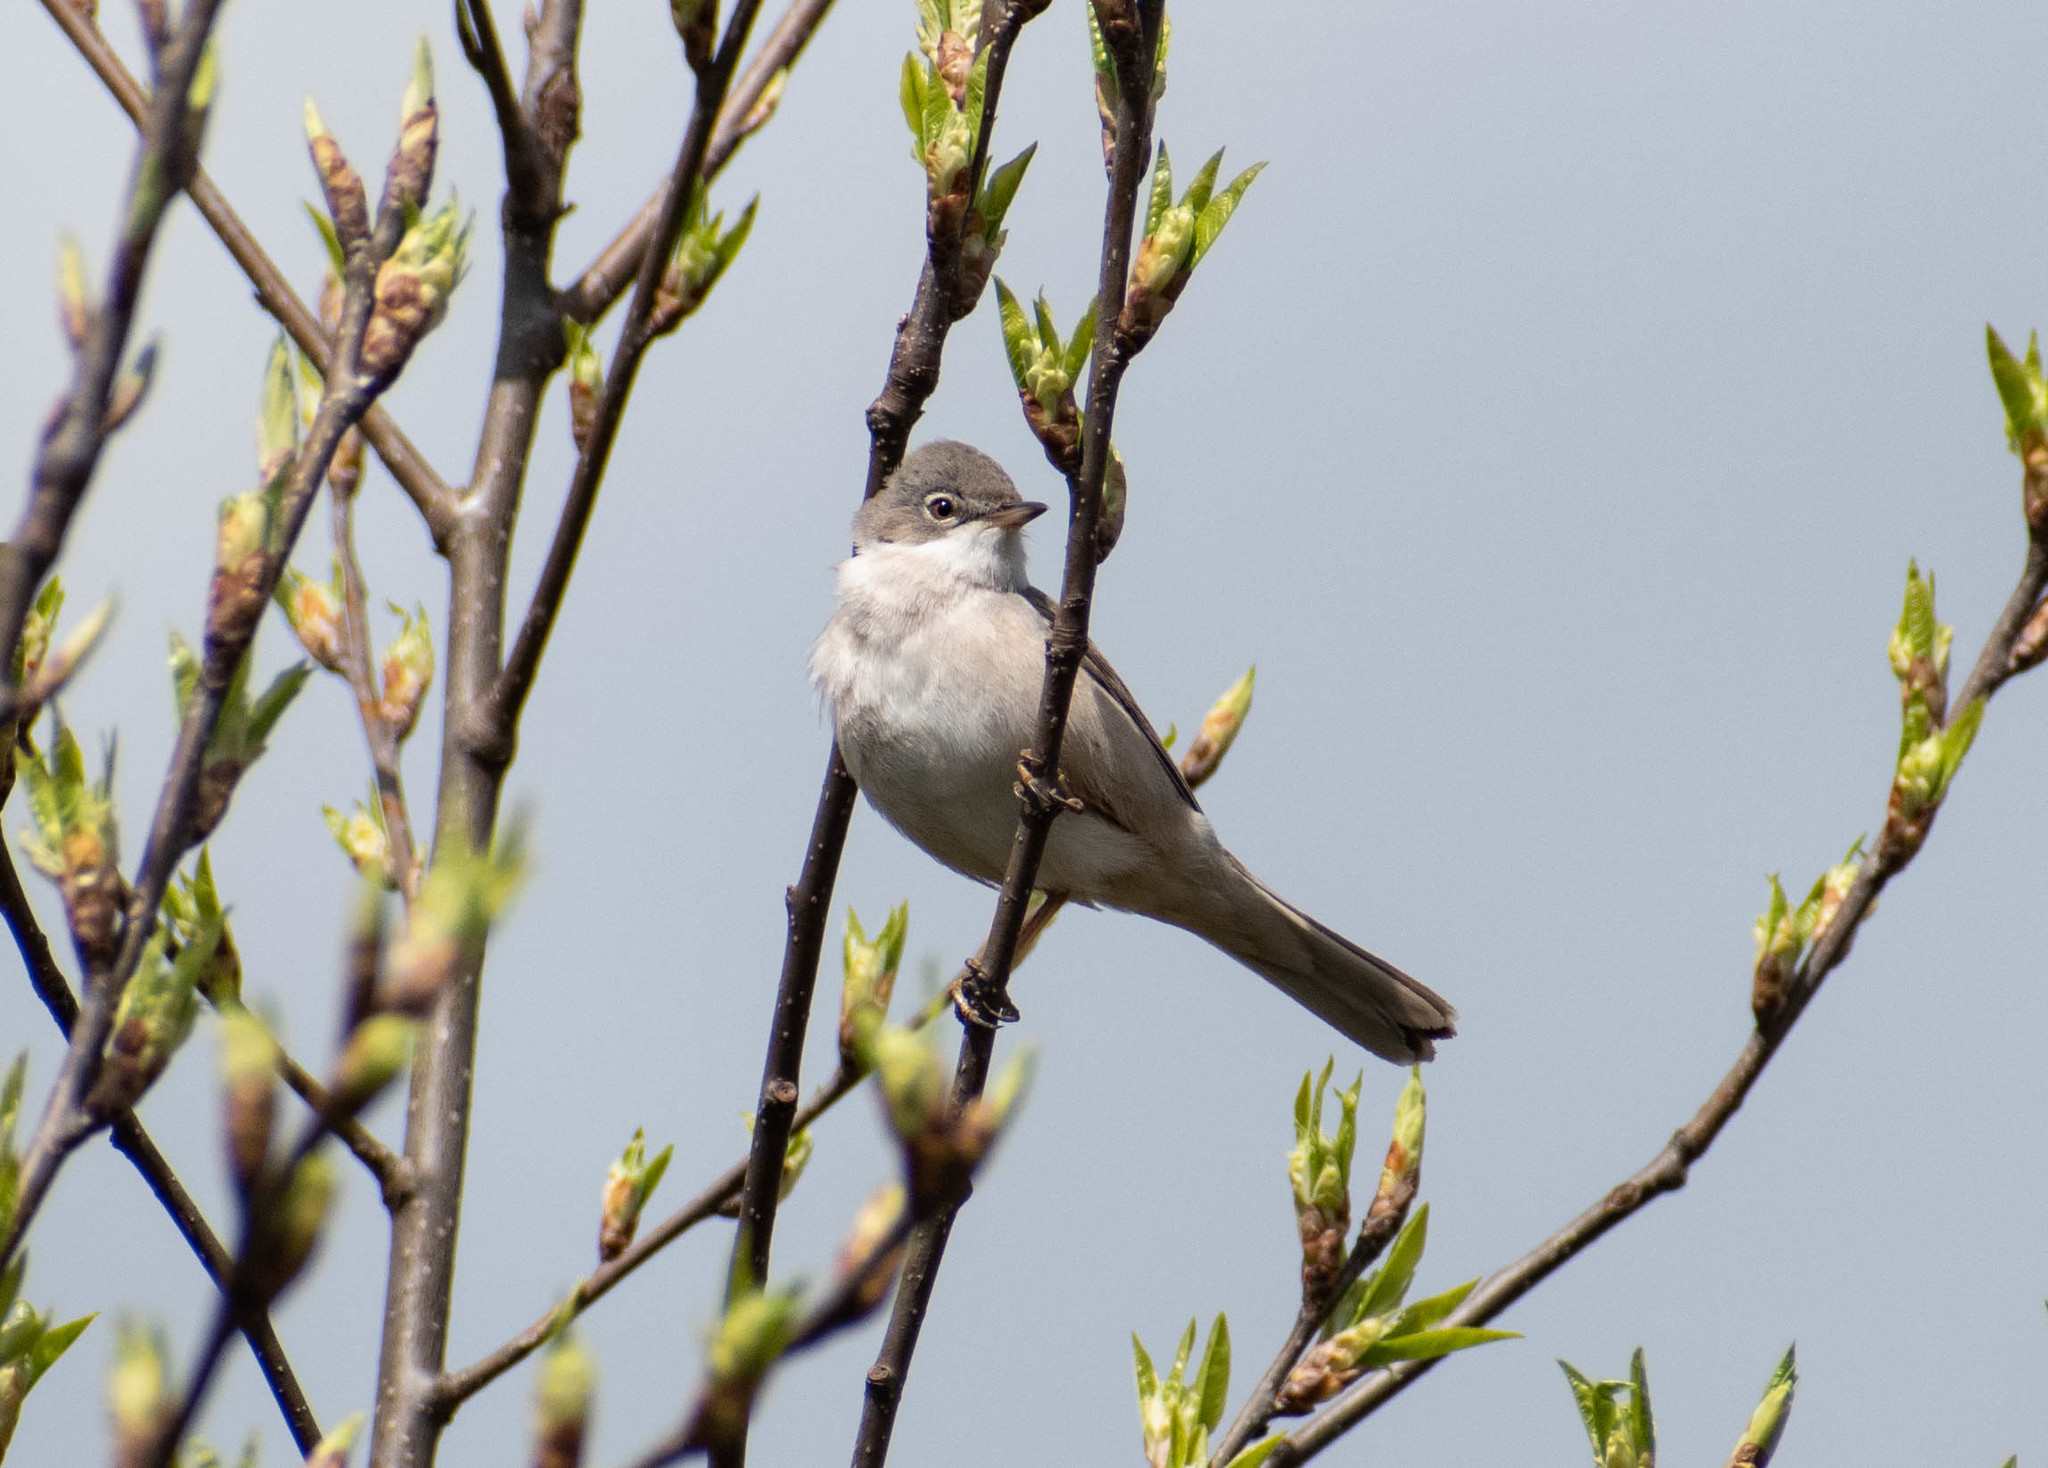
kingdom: Animalia
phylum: Chordata
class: Aves
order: Passeriformes
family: Sylviidae
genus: Sylvia
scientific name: Sylvia communis
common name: Common whitethroat
